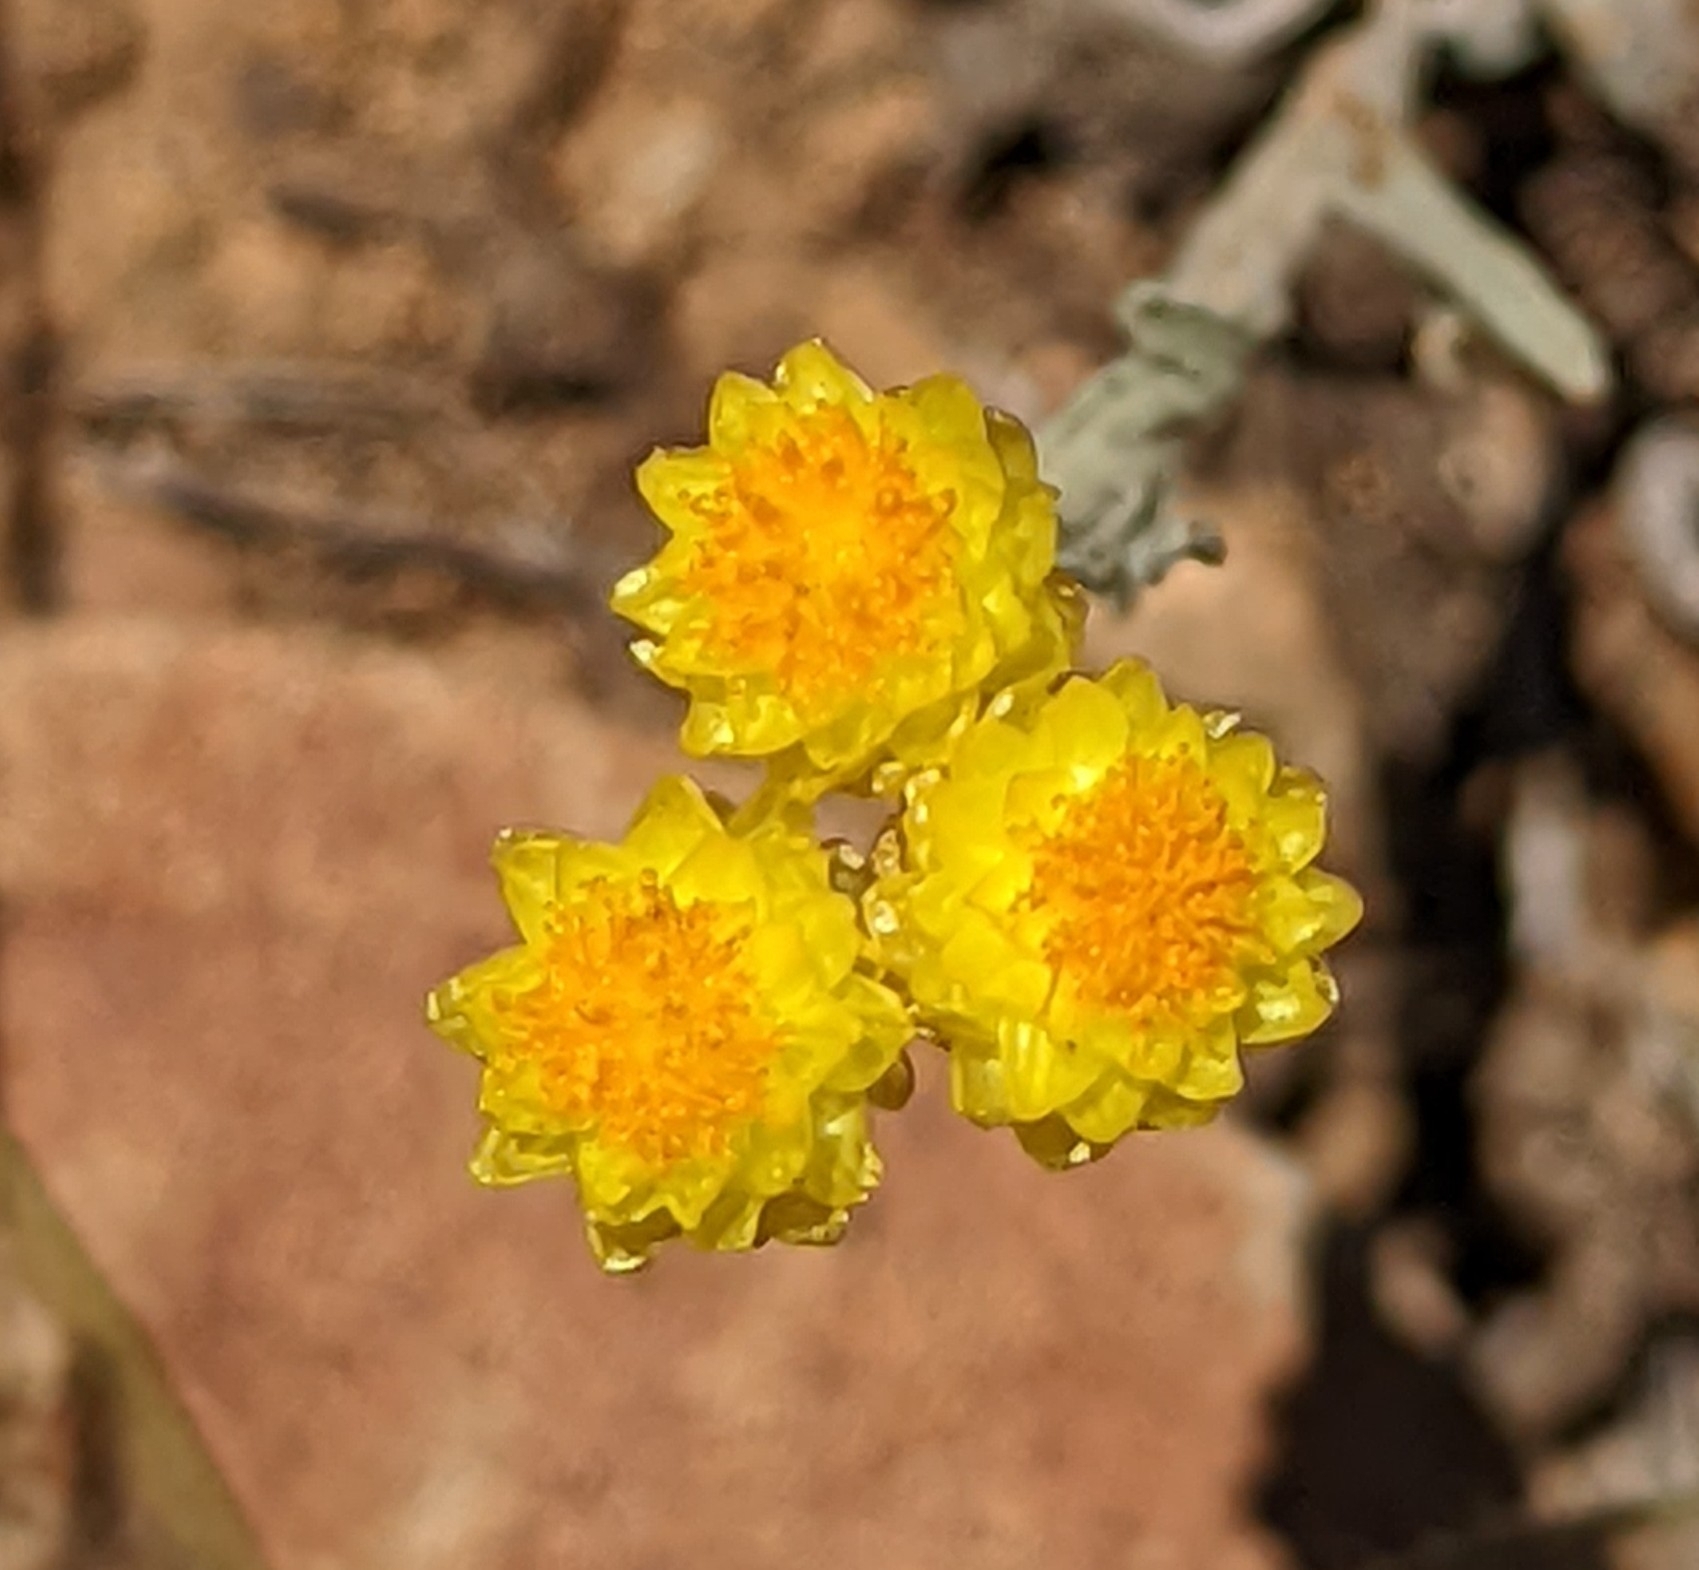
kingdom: Plantae
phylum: Tracheophyta
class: Magnoliopsida
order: Asterales
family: Asteraceae
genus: Helichrysum
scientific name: Helichrysum arenarium
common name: Strawflower
